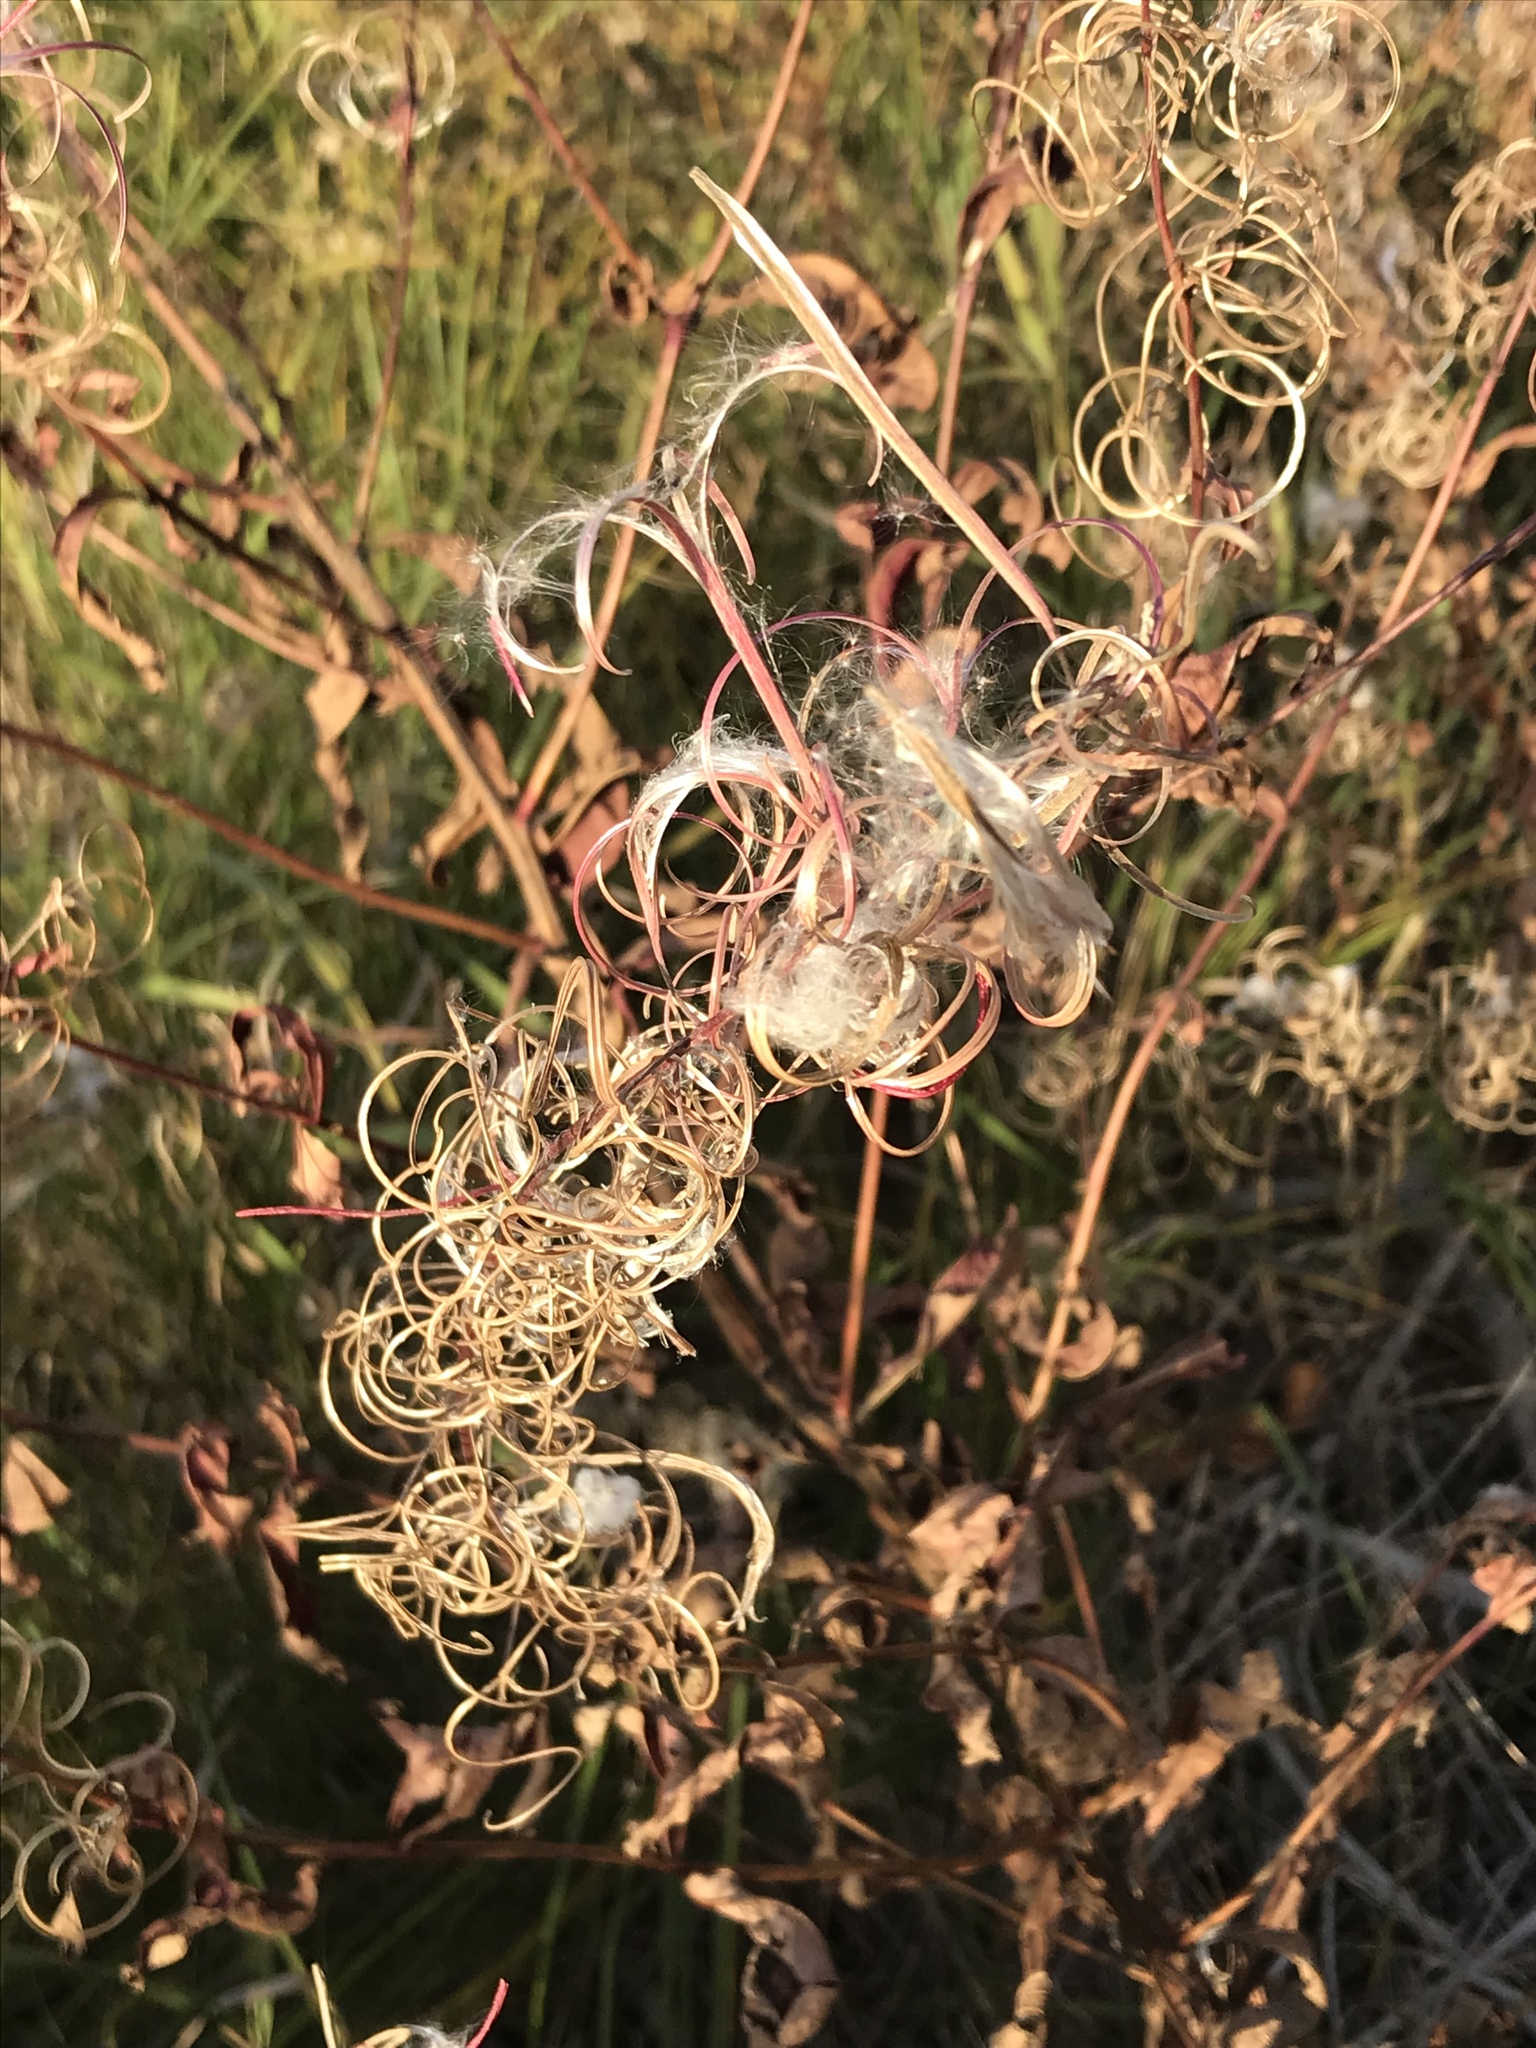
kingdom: Plantae
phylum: Tracheophyta
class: Magnoliopsida
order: Myrtales
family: Onagraceae
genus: Chamaenerion
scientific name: Chamaenerion angustifolium
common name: Fireweed
